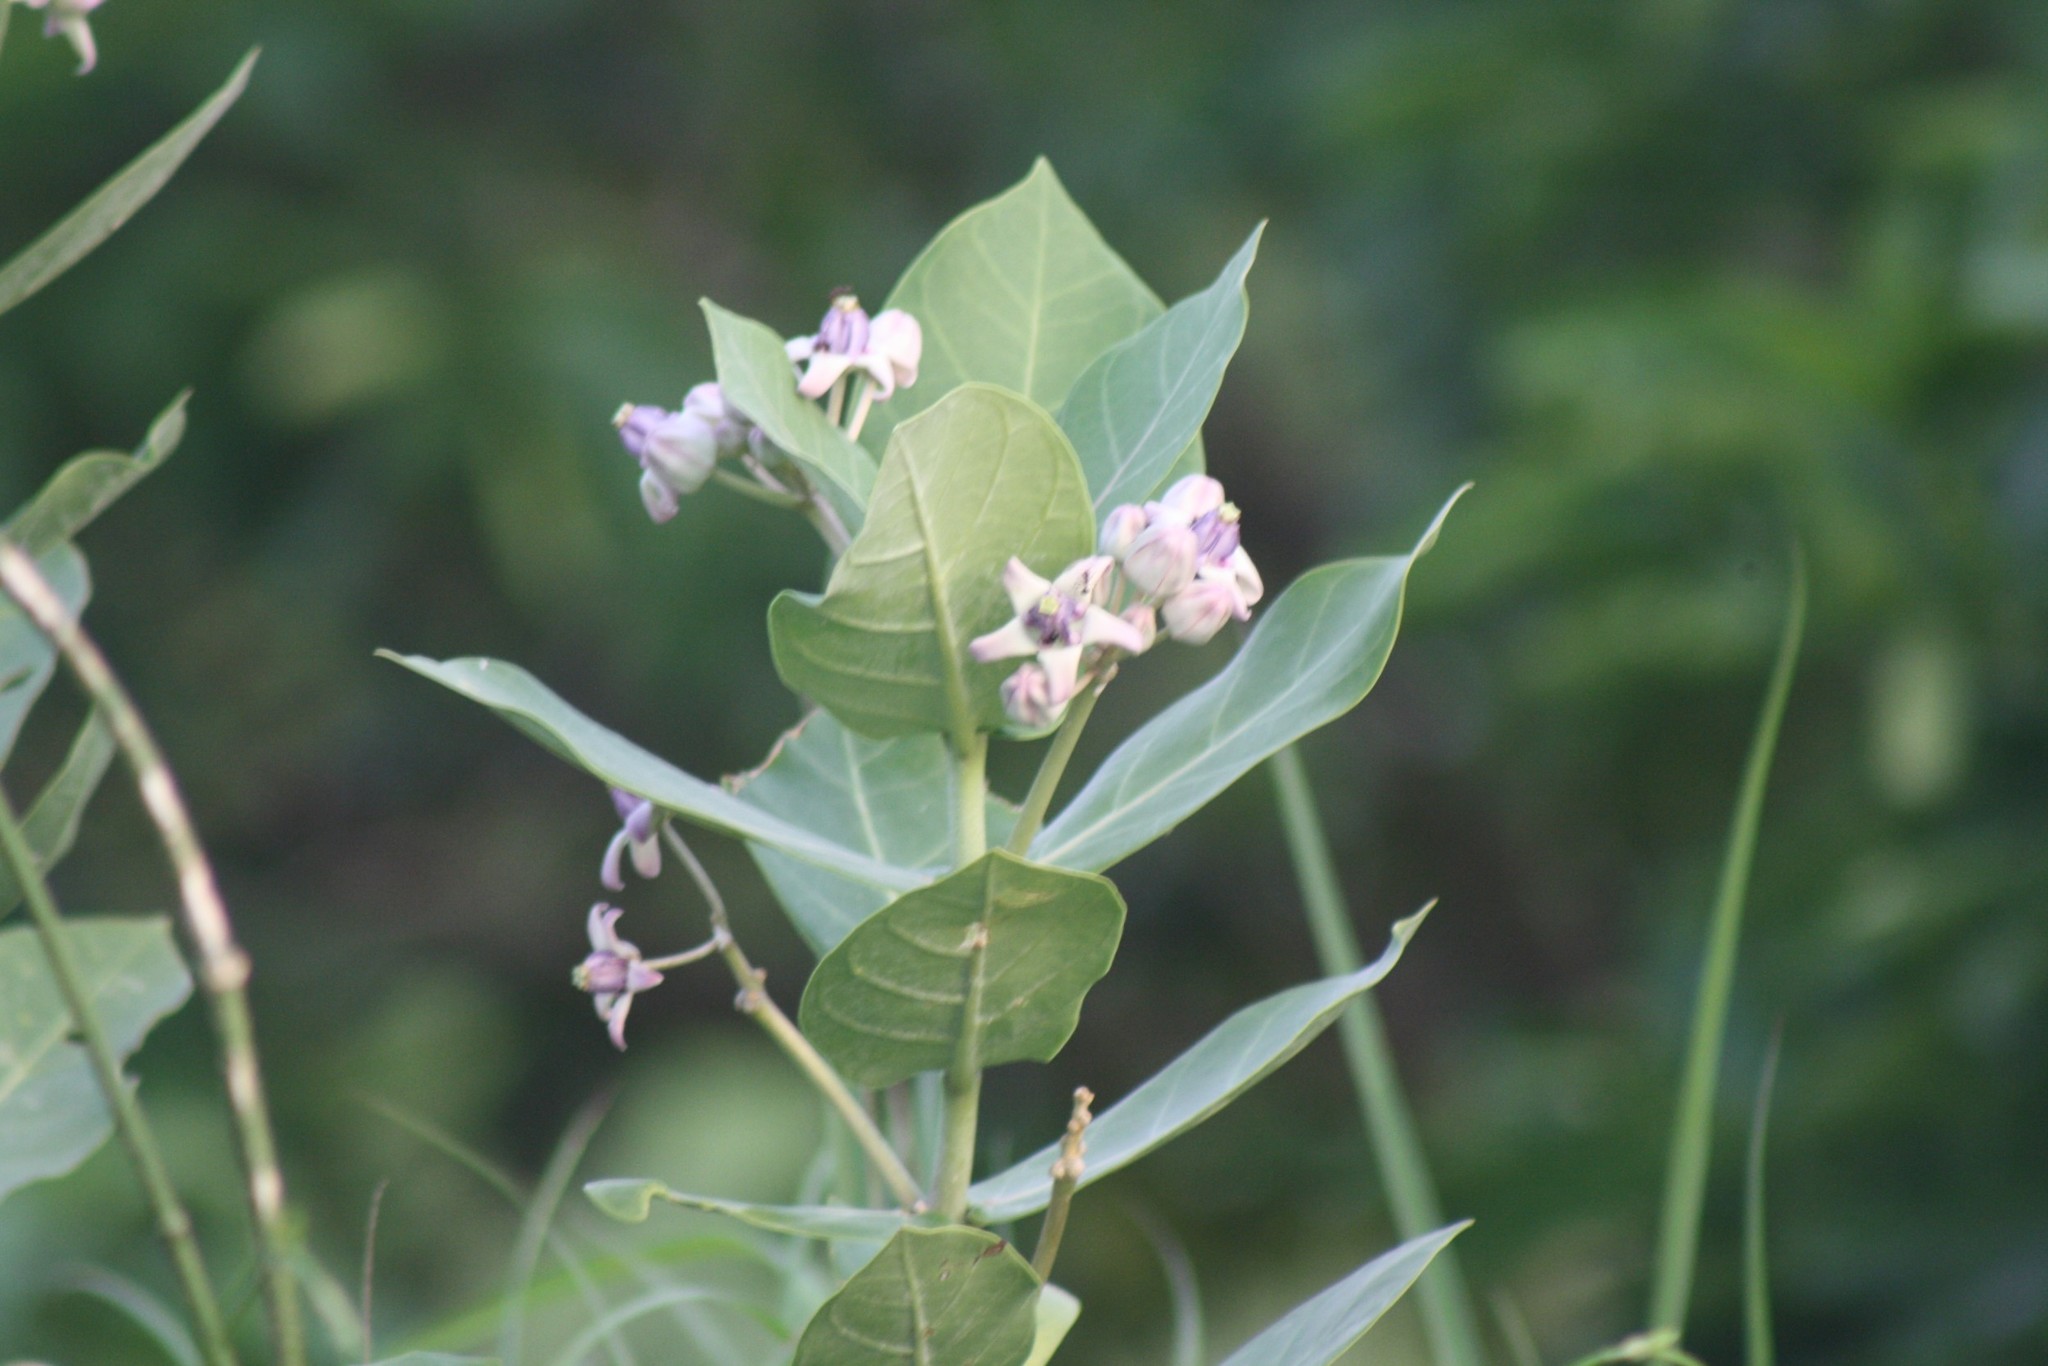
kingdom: Plantae
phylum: Tracheophyta
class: Magnoliopsida
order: Gentianales
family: Apocynaceae
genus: Calotropis
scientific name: Calotropis gigantea
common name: Crown flower
